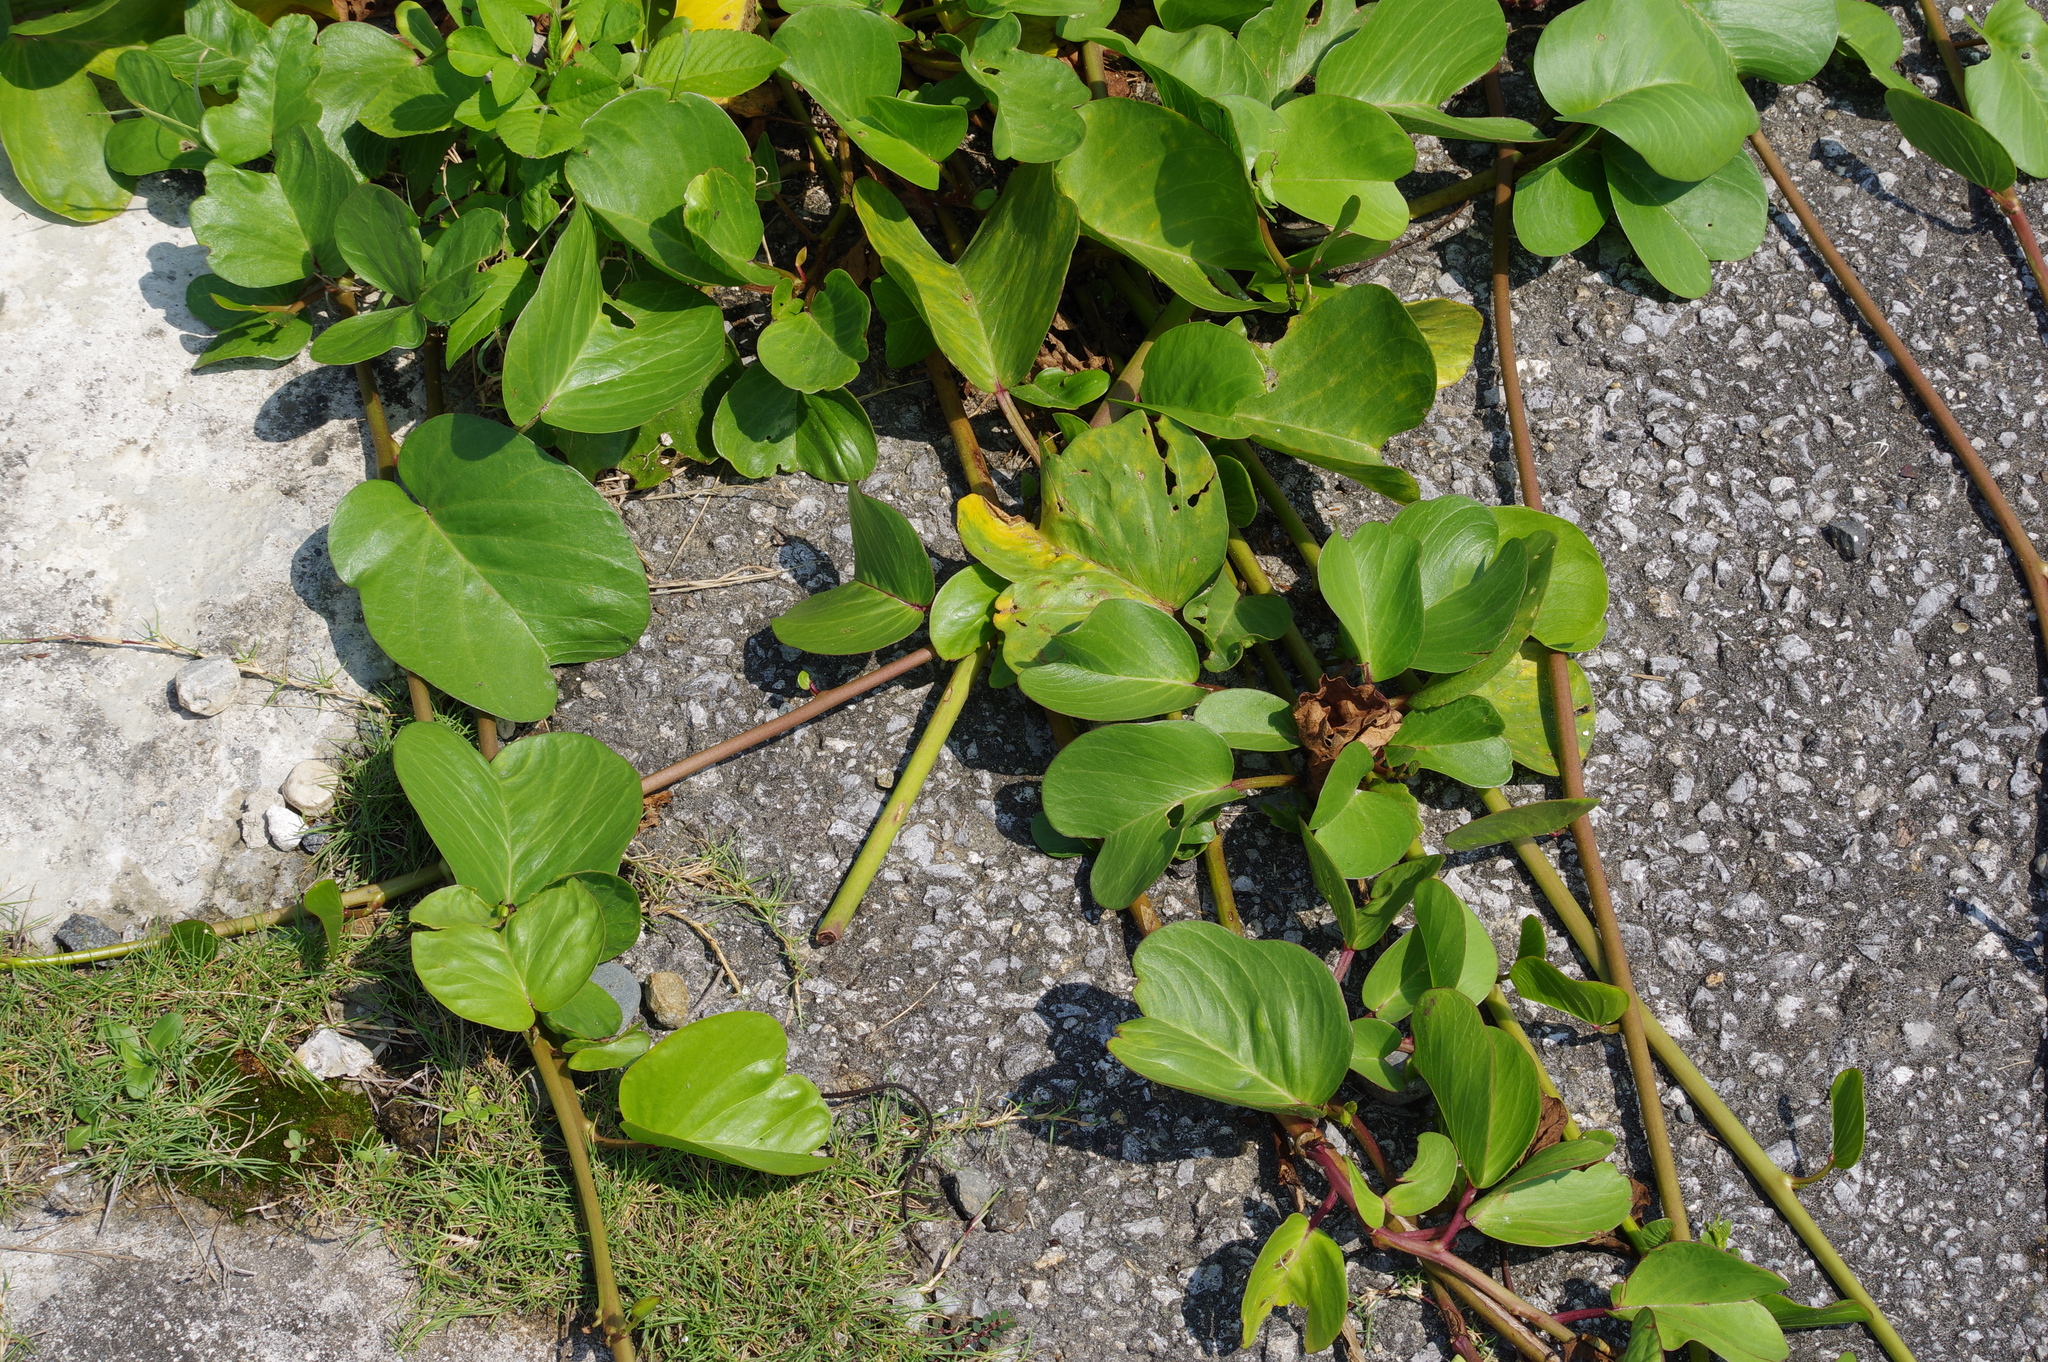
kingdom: Plantae
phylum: Tracheophyta
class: Magnoliopsida
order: Solanales
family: Convolvulaceae
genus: Ipomoea
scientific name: Ipomoea pes-caprae
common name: Beach morning glory
